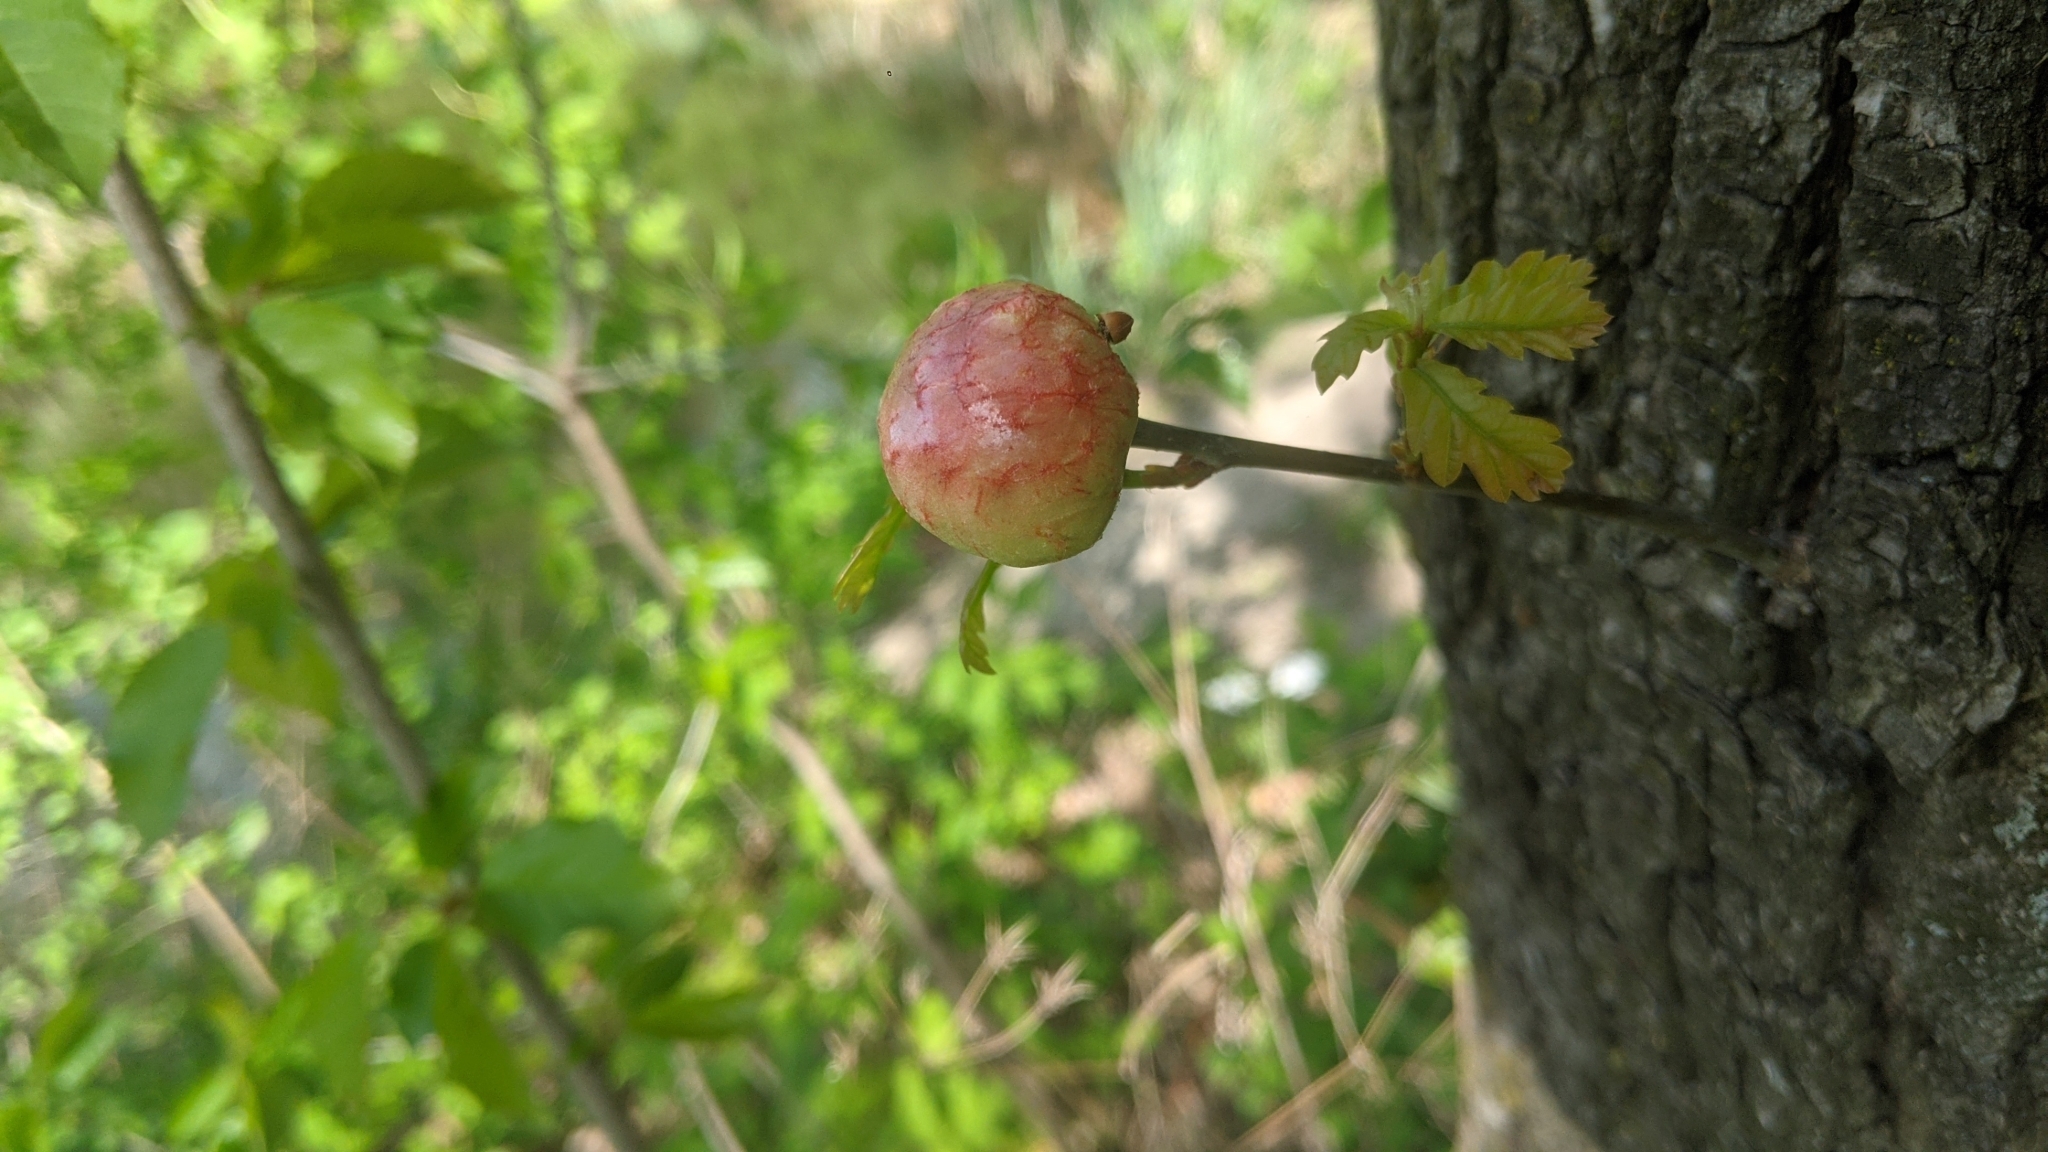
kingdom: Animalia
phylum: Arthropoda
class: Insecta
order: Hymenoptera
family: Cynipidae
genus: Biorhiza
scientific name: Biorhiza pallida
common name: Oak apple
